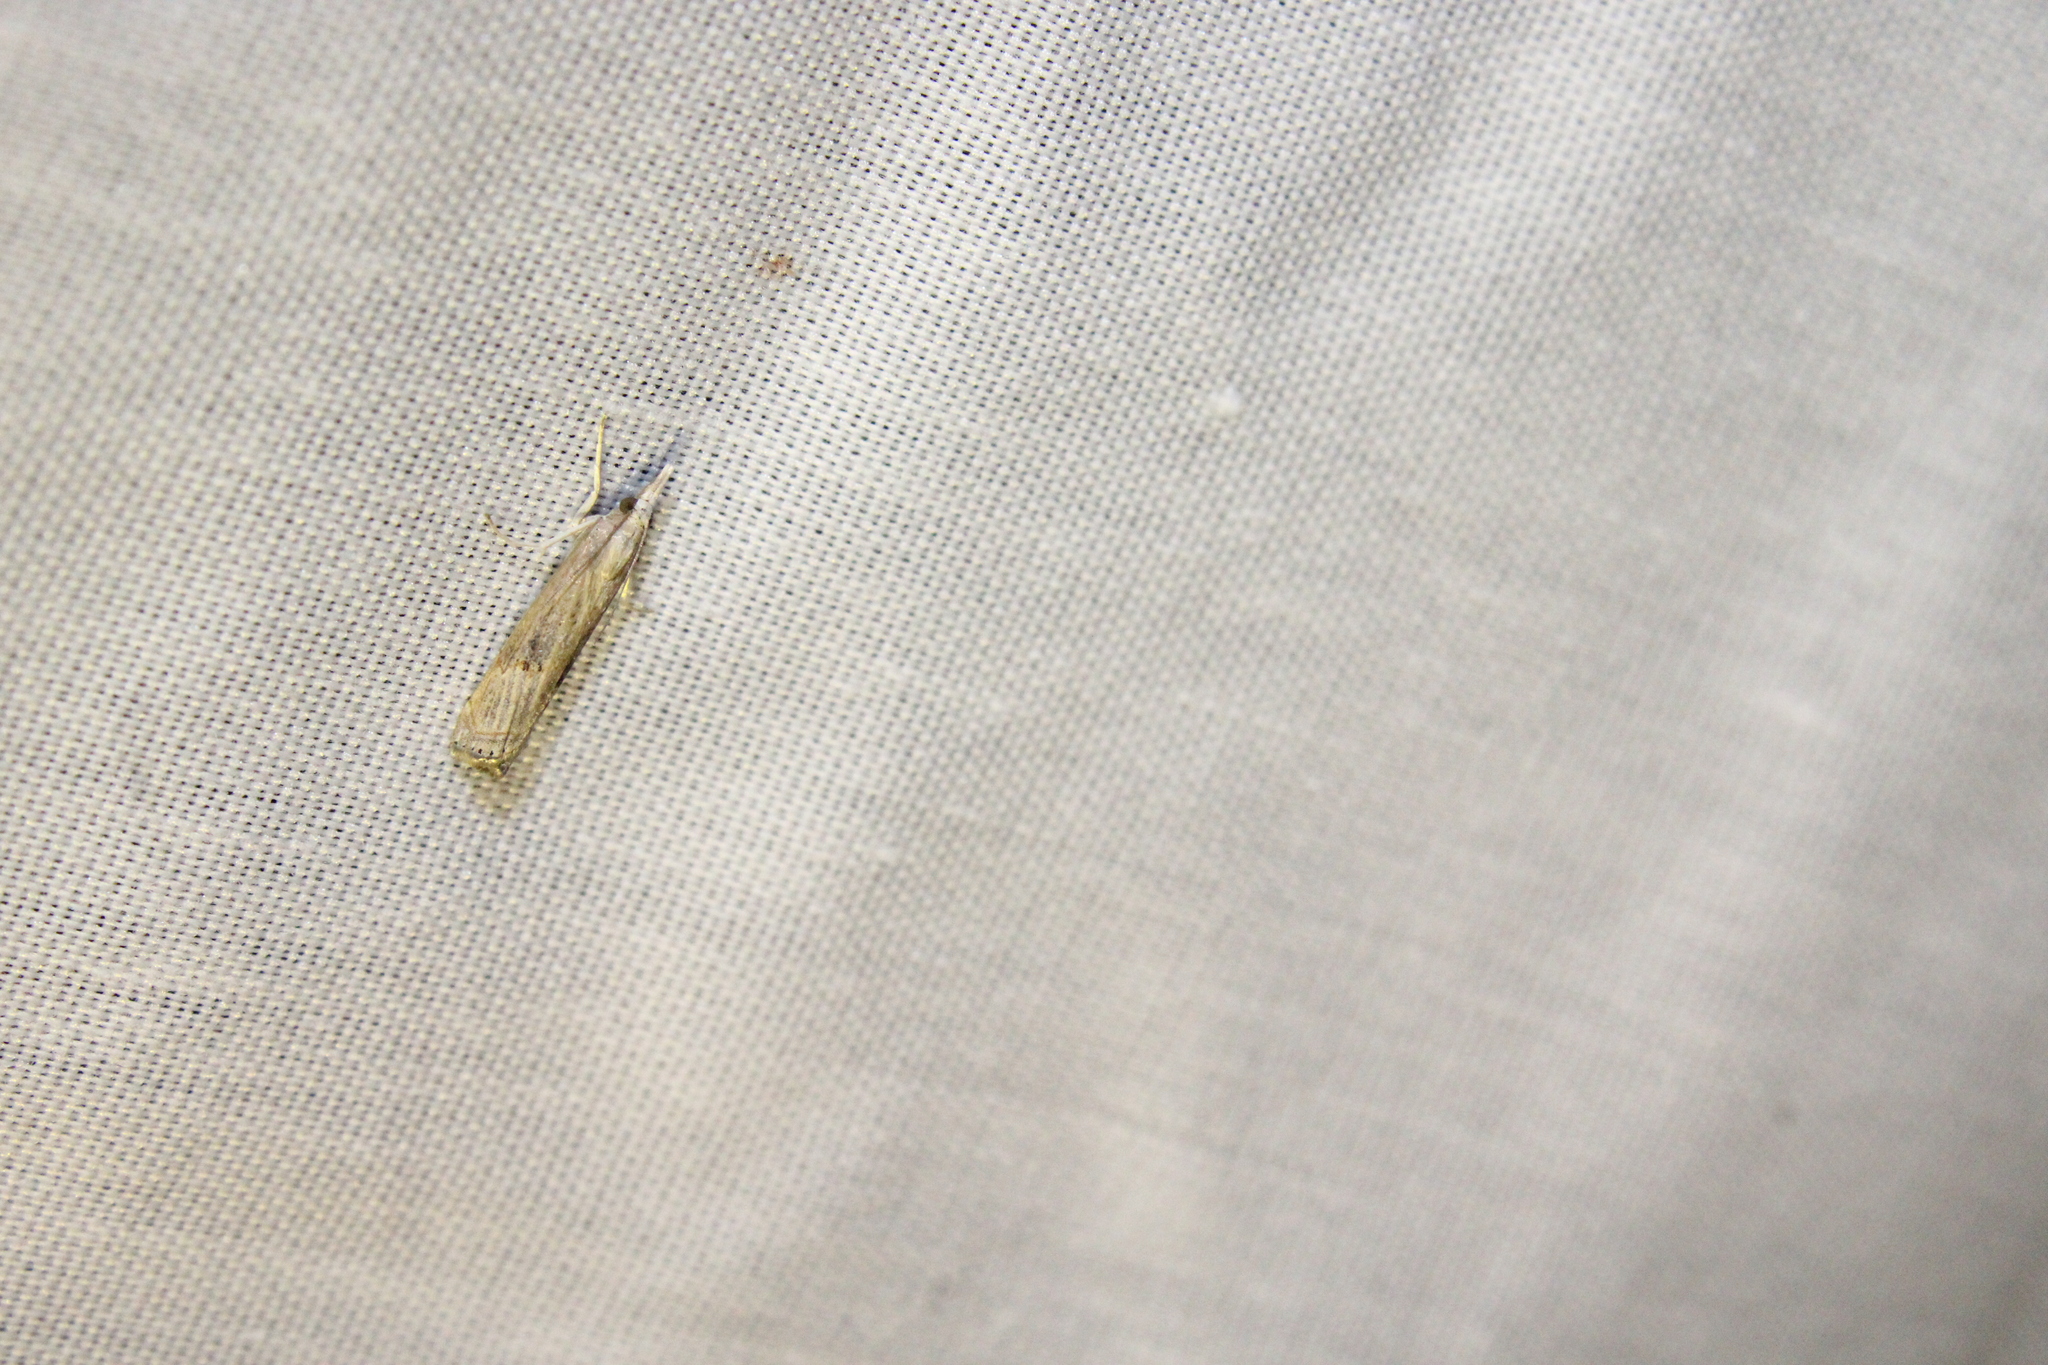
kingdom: Animalia
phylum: Arthropoda
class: Insecta
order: Lepidoptera
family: Crambidae
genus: Parapediasia
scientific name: Parapediasia teterellus
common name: Bluegrass webworm moth
